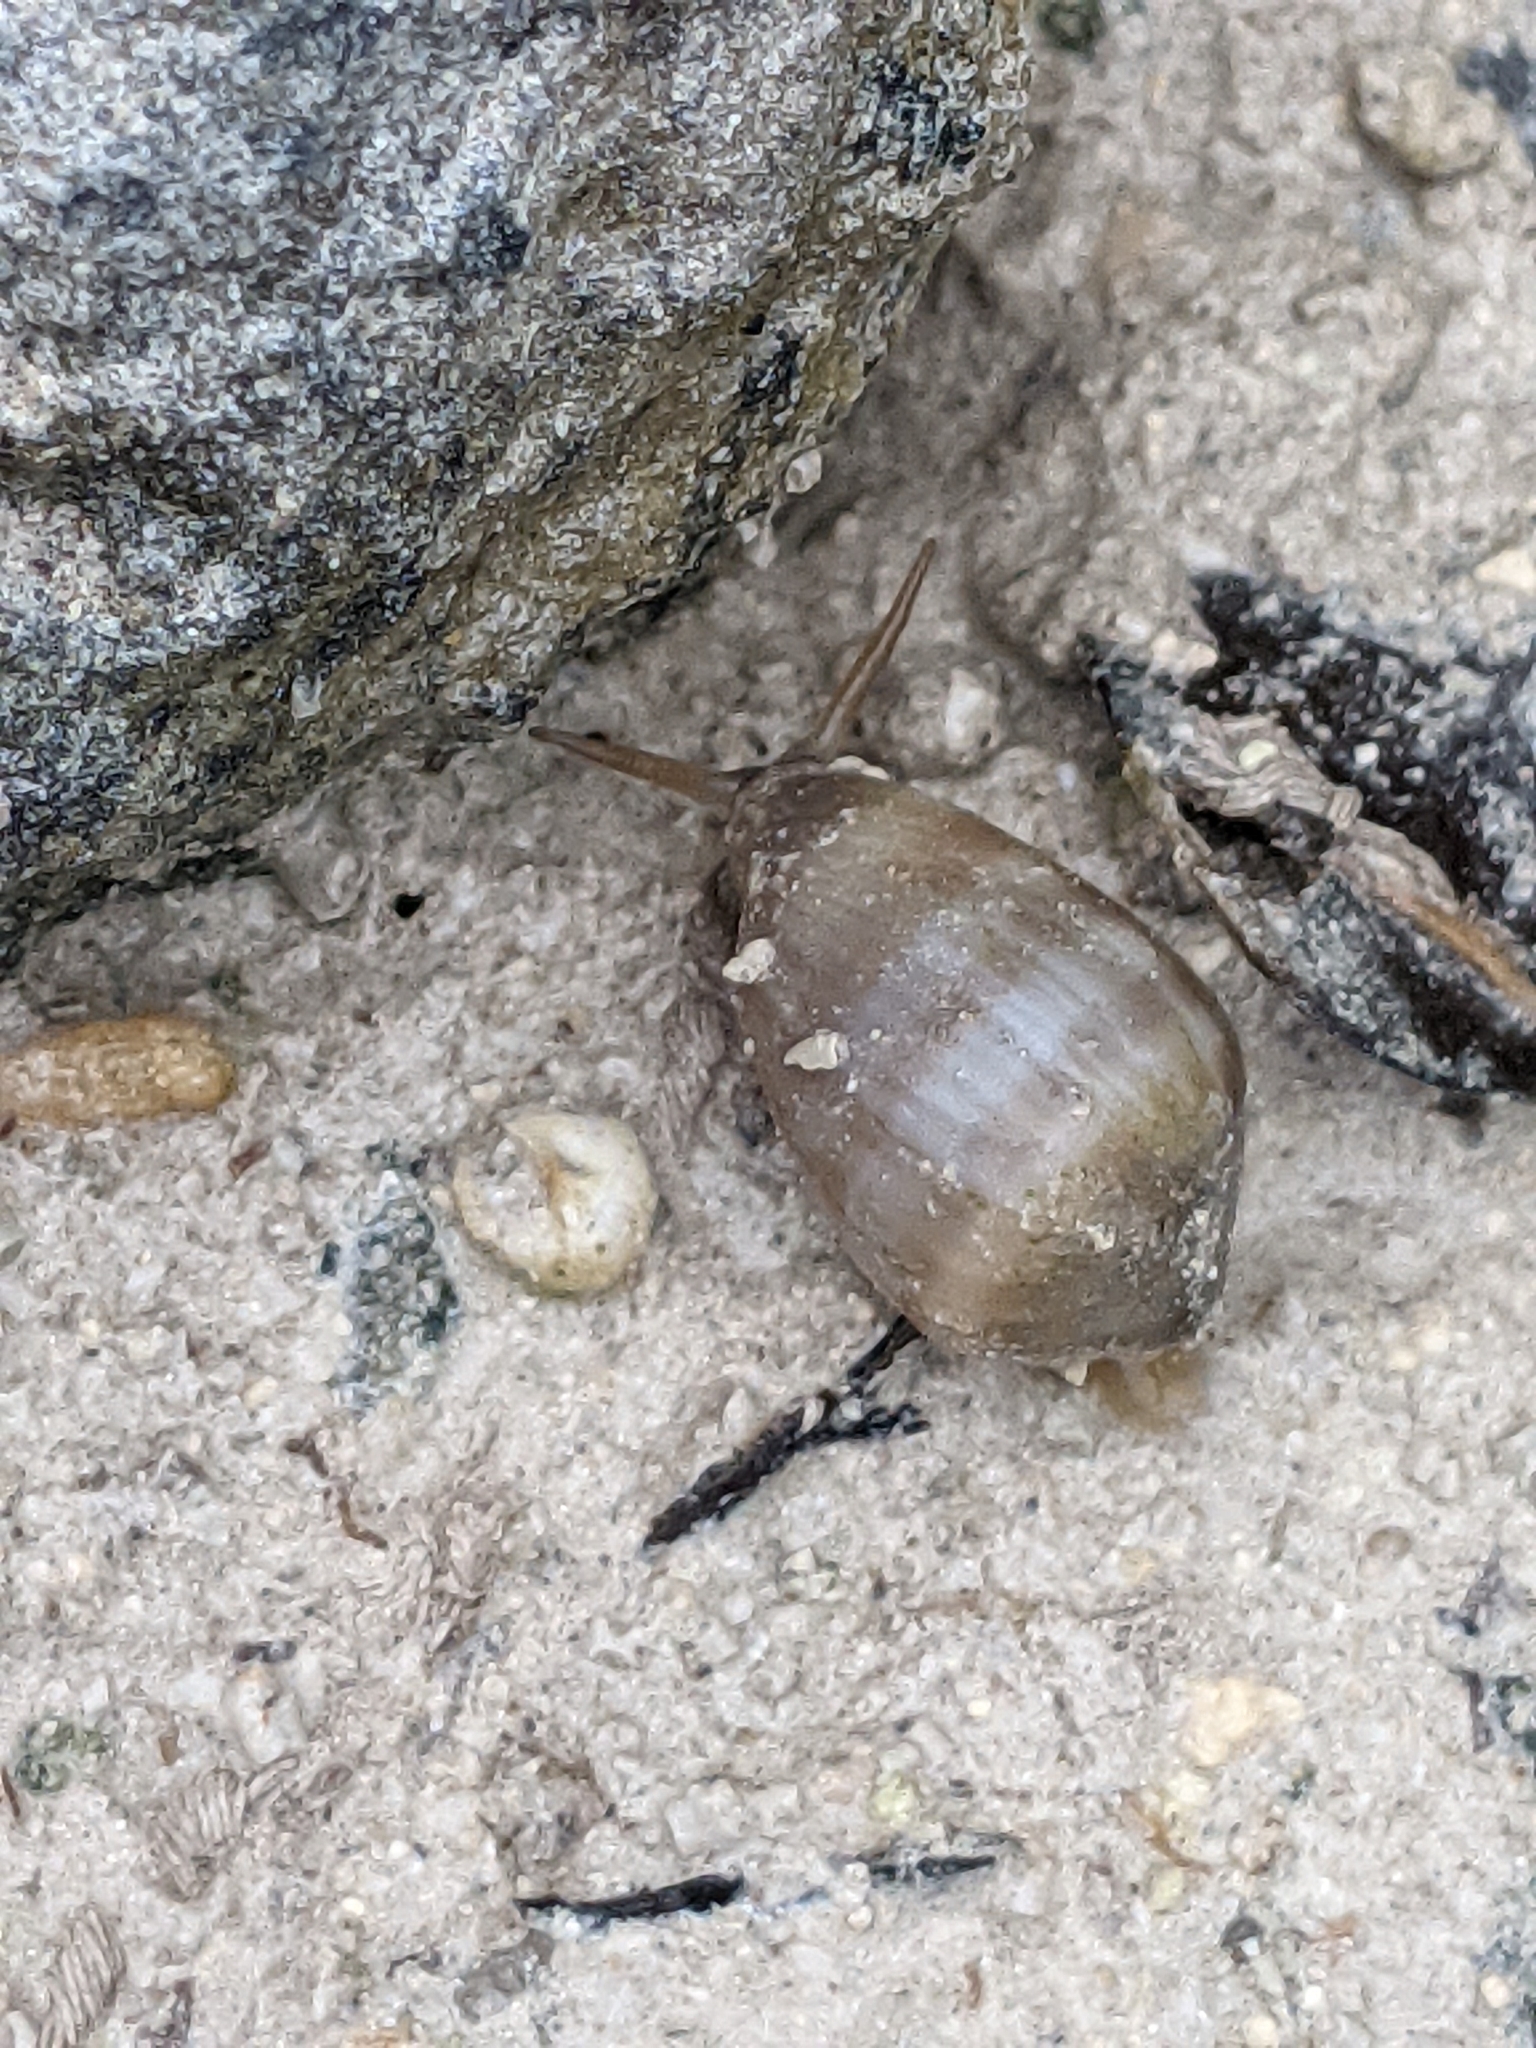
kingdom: Animalia
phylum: Mollusca
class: Gastropoda
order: Ellobiida
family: Ellobiidae
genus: Melampus
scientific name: Melampus coffea
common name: Coffee bean snail
